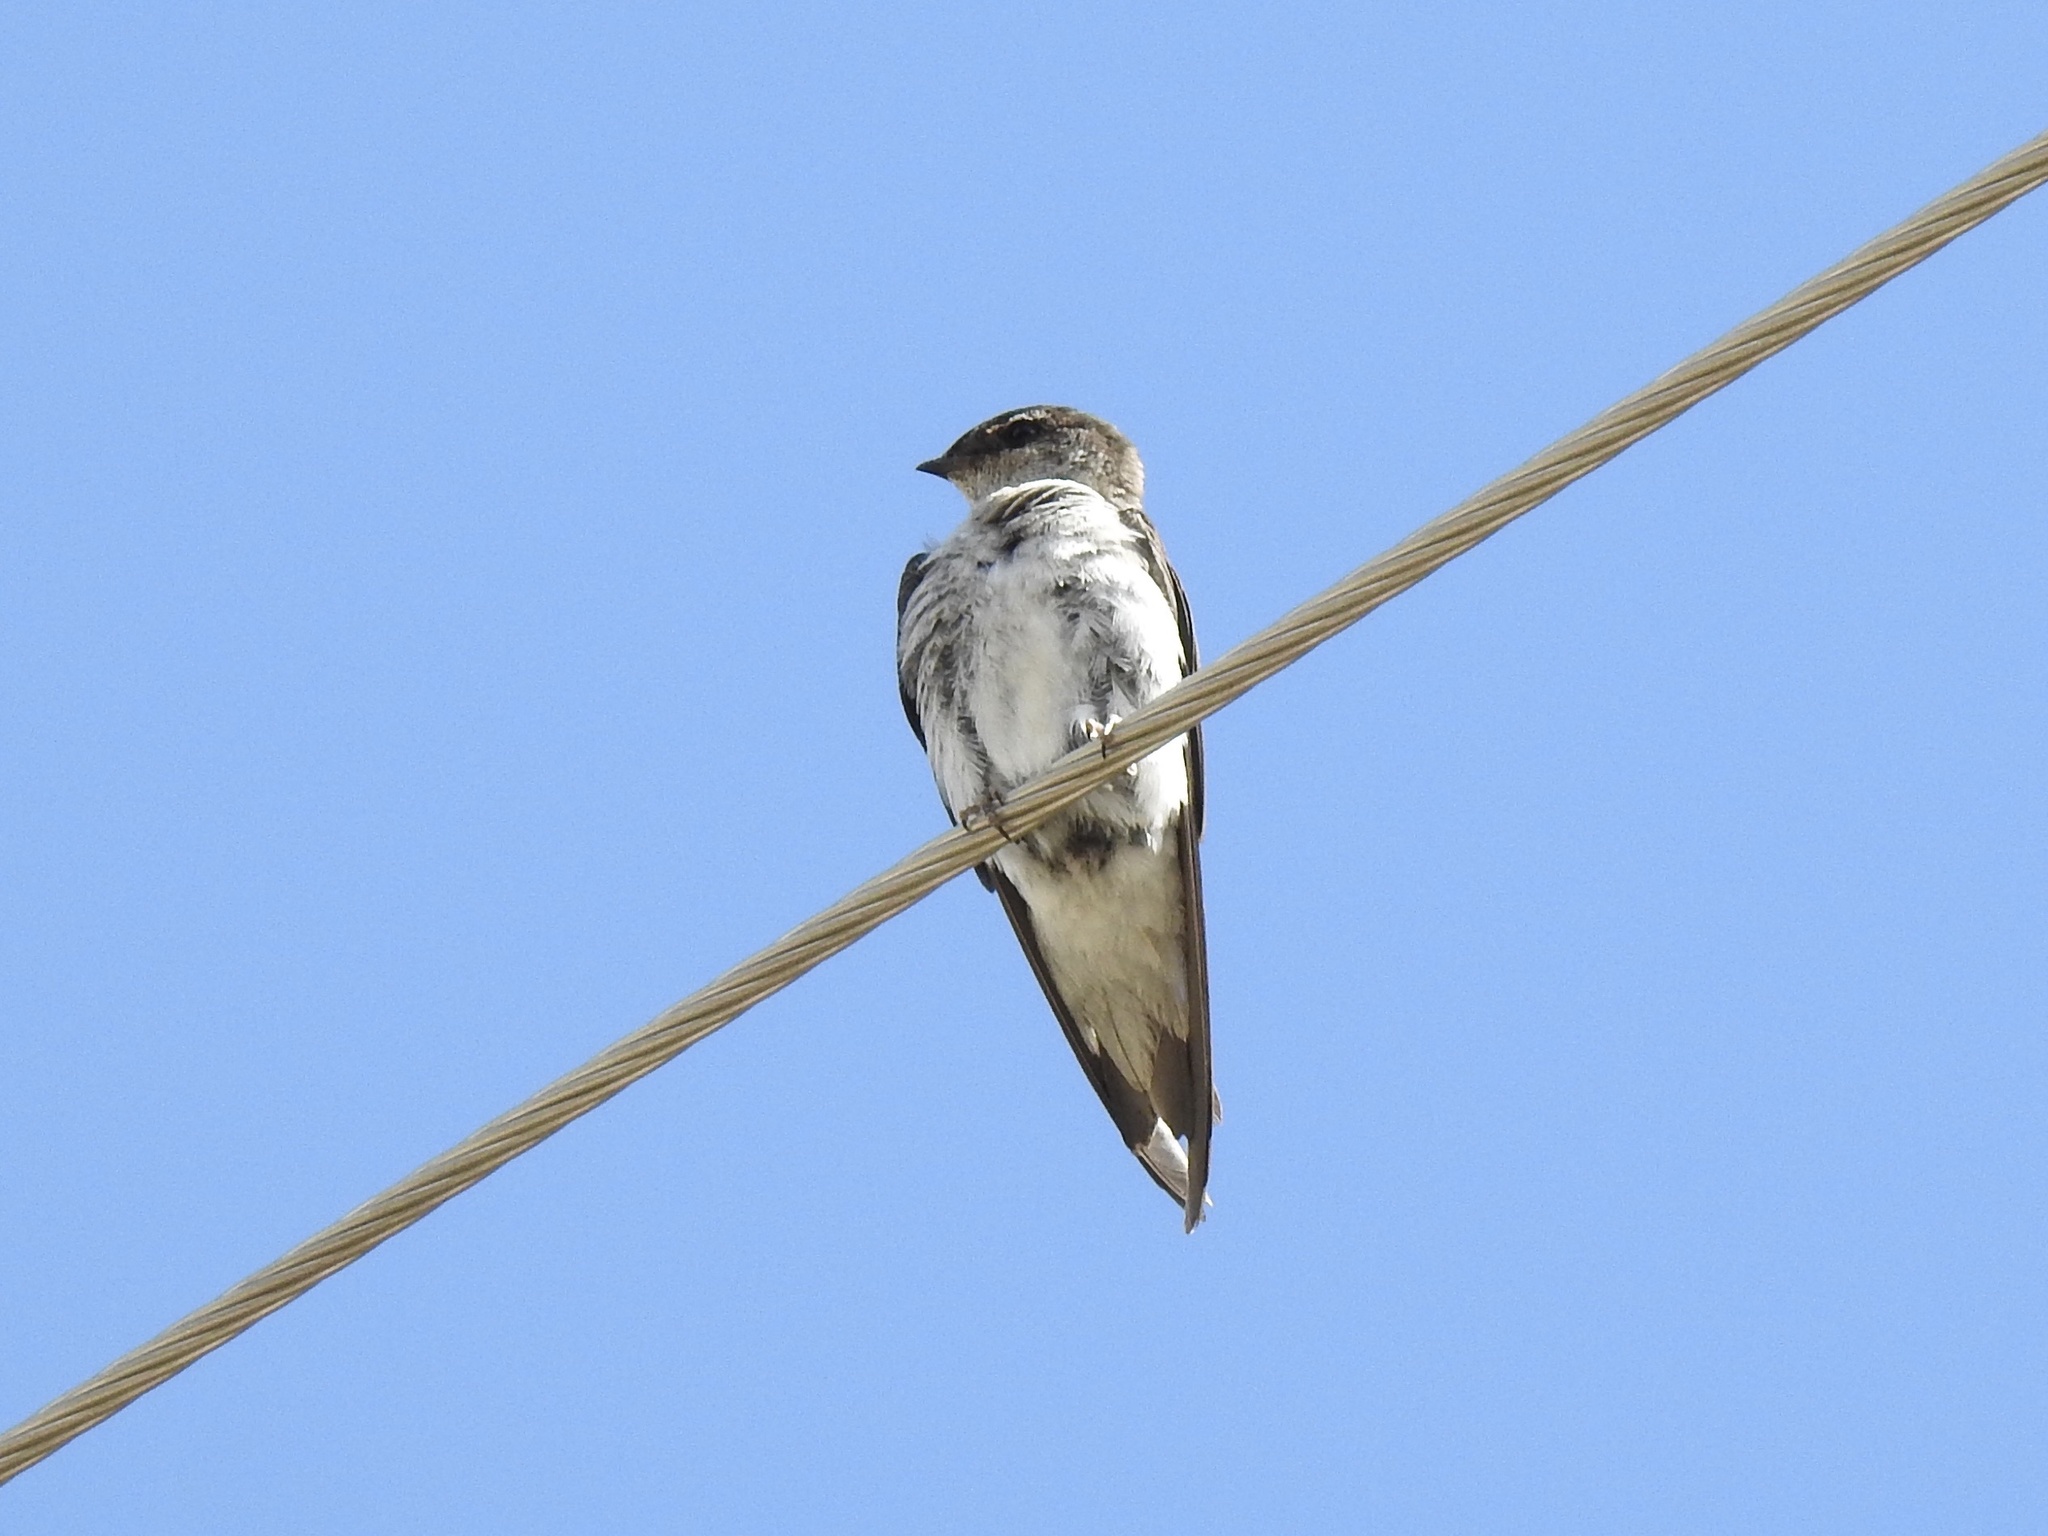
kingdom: Animalia
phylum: Chordata
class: Aves
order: Passeriformes
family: Hirundinidae
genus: Tachycineta
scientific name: Tachycineta thalassina
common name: Violet-green swallow
